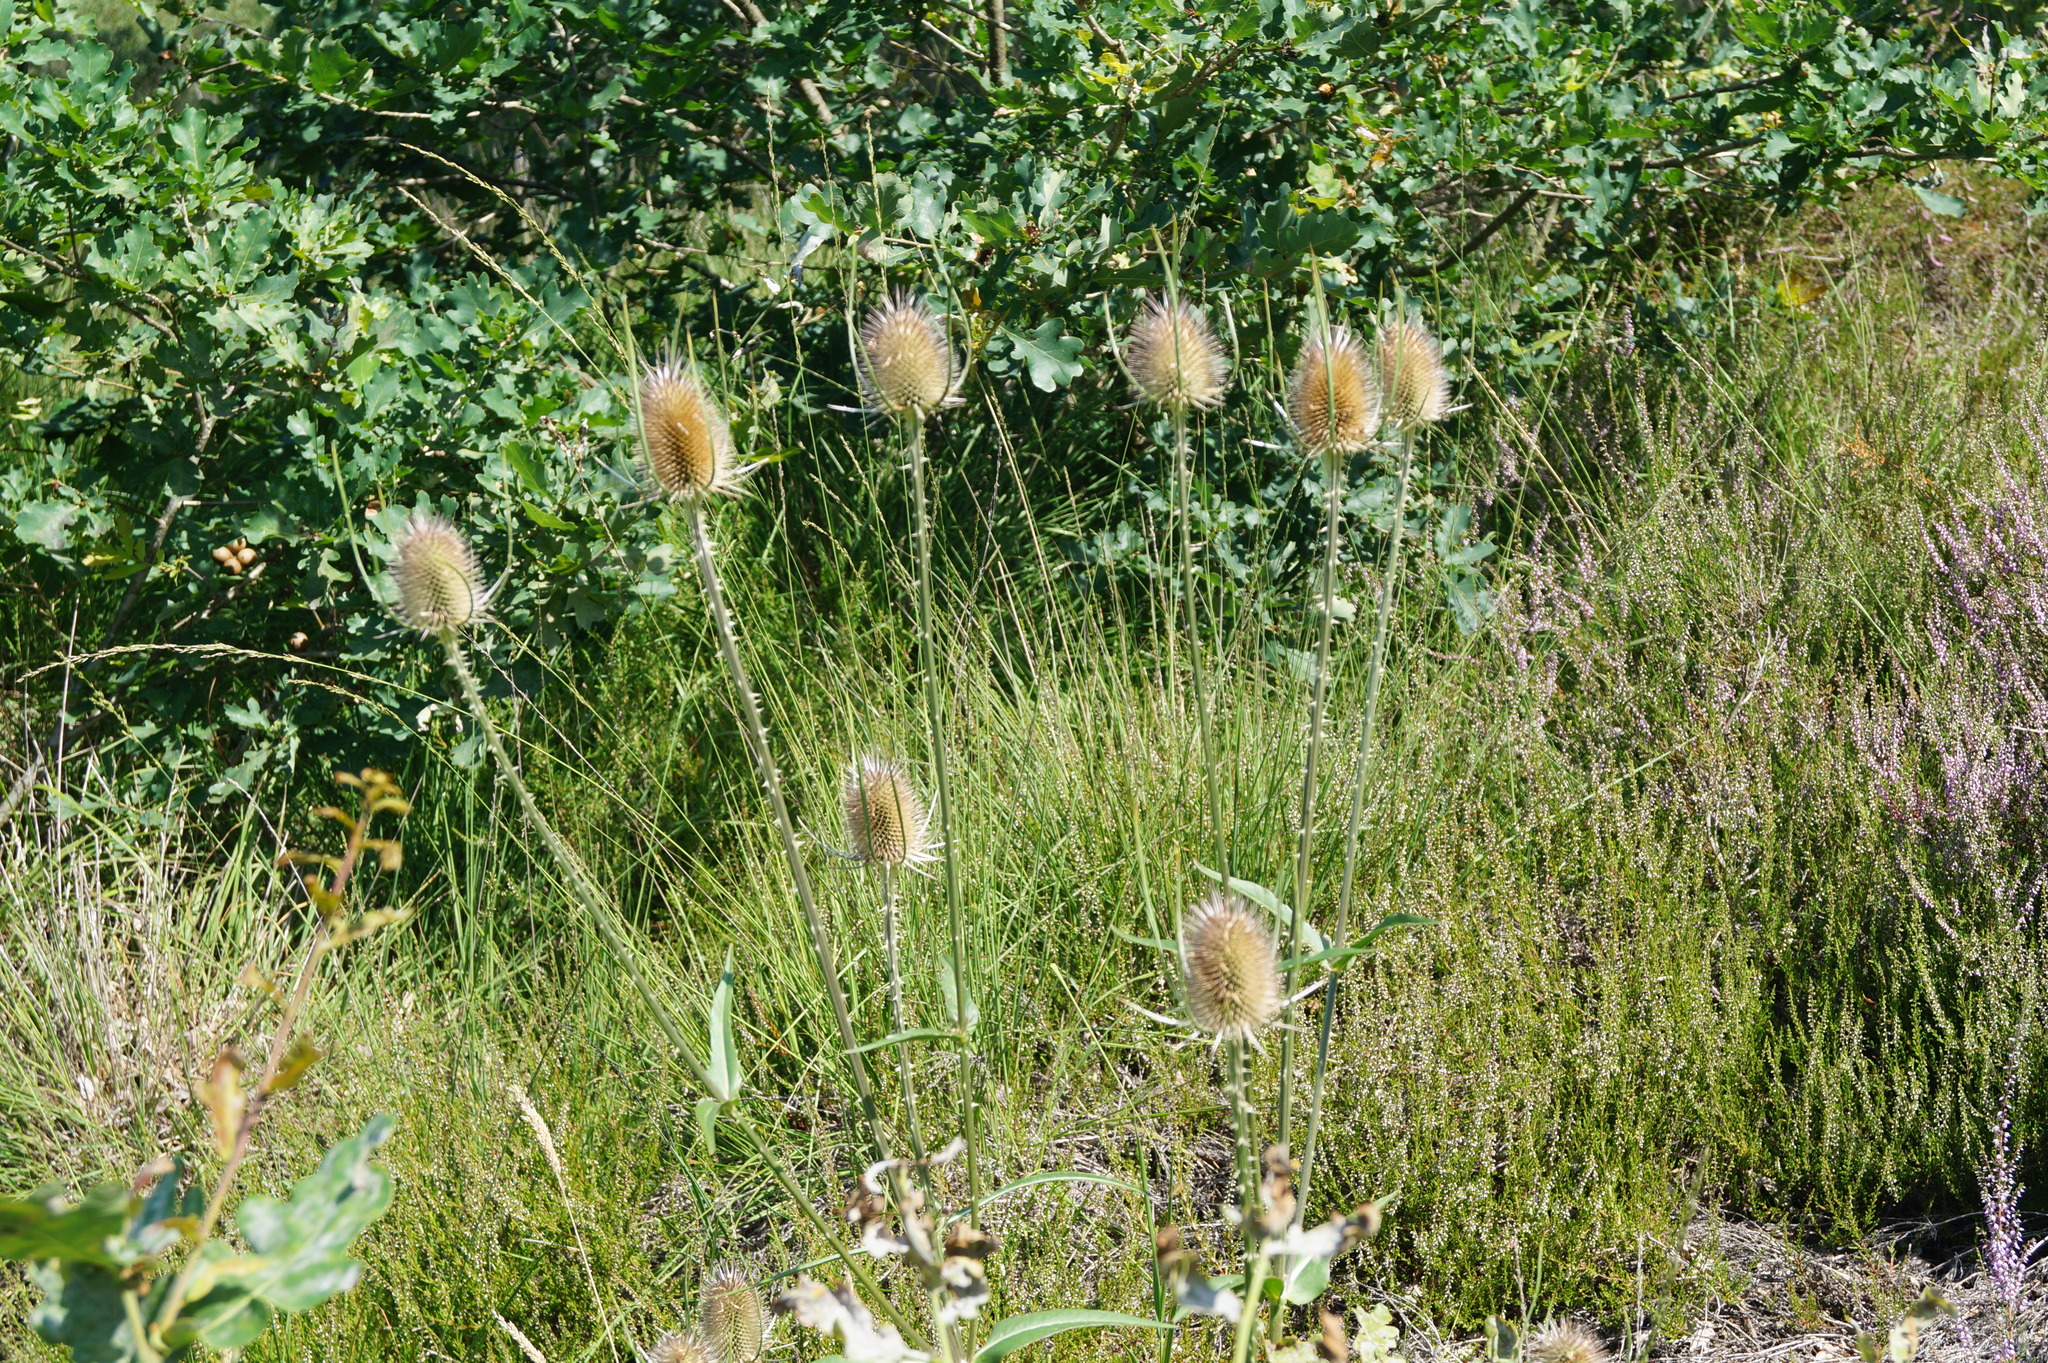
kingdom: Plantae
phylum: Tracheophyta
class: Magnoliopsida
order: Dipsacales
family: Caprifoliaceae
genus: Dipsacus
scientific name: Dipsacus fullonum
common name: Teasel
